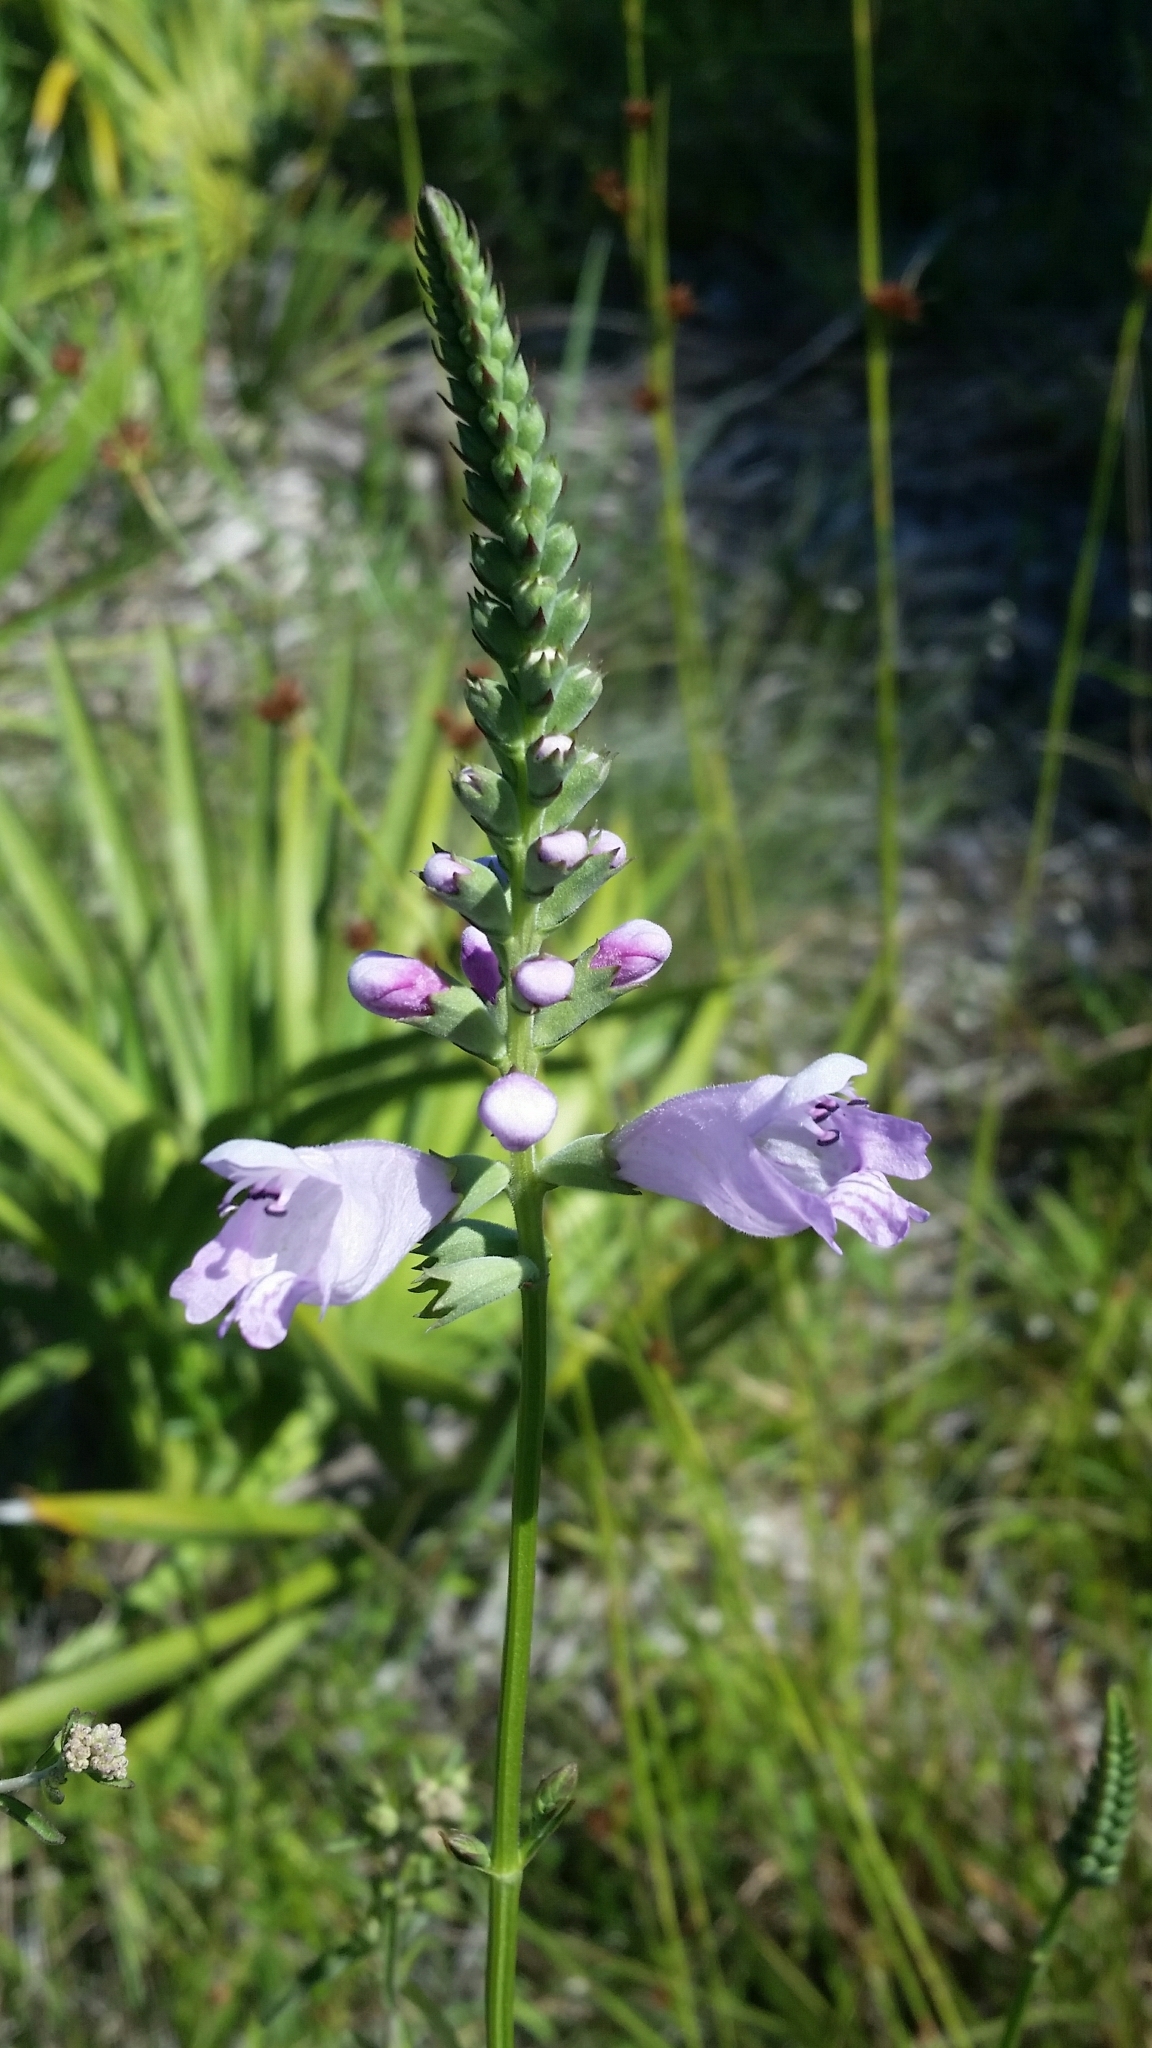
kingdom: Plantae
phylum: Tracheophyta
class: Magnoliopsida
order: Lamiales
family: Lamiaceae
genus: Physostegia
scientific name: Physostegia purpurea
